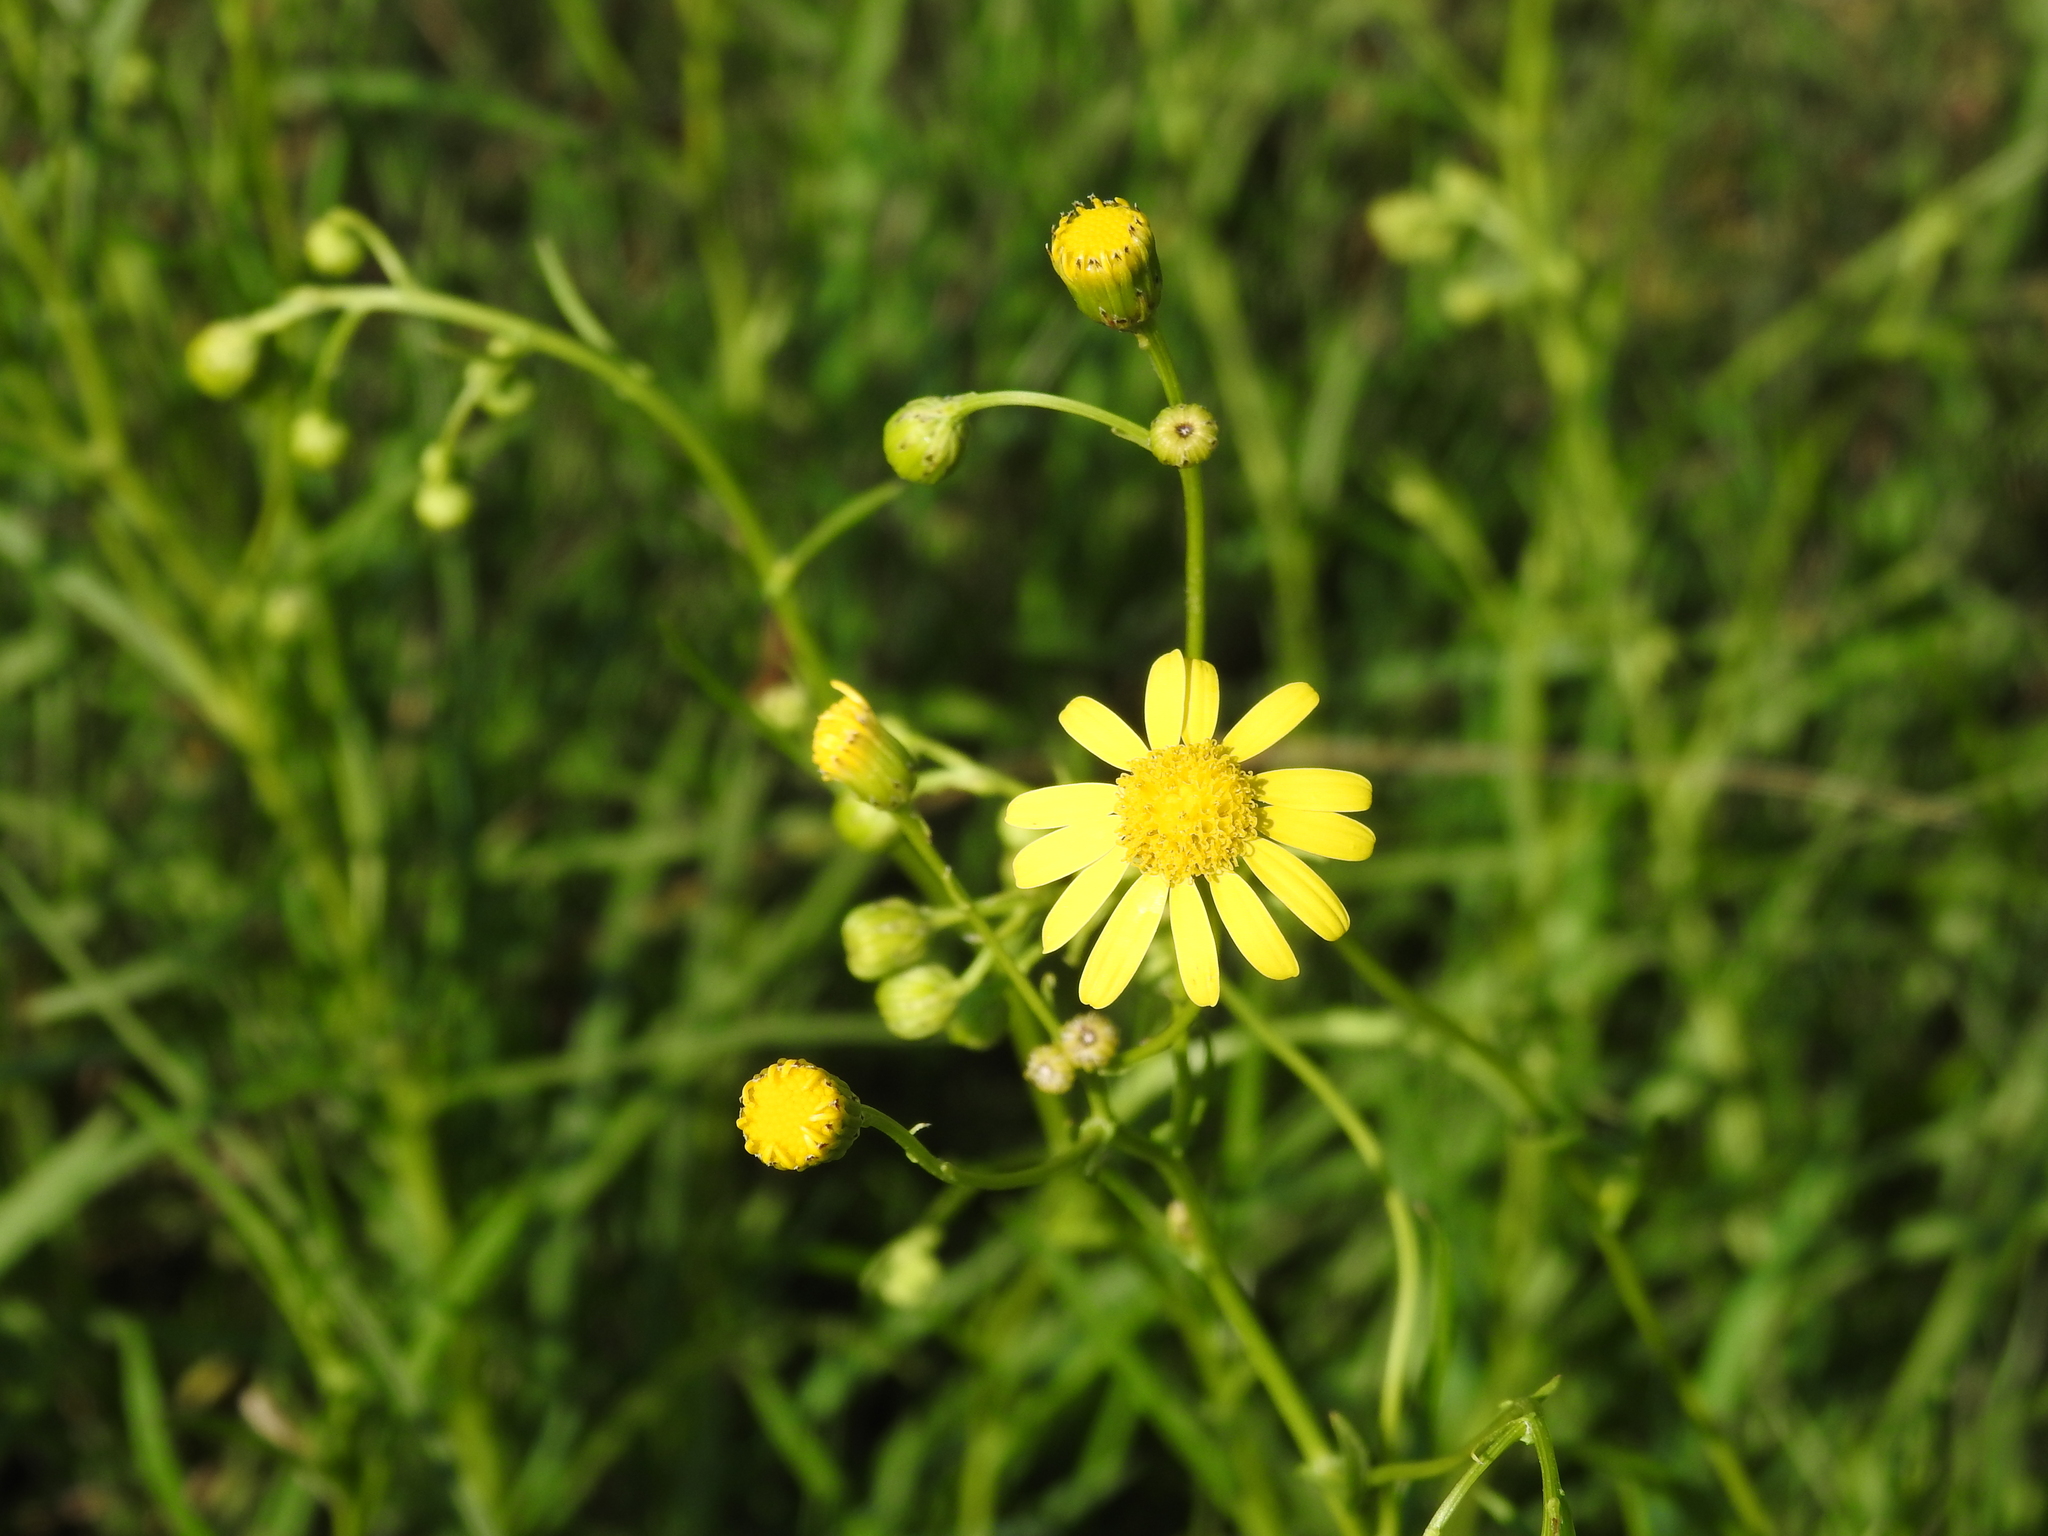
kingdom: Plantae
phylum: Tracheophyta
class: Magnoliopsida
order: Asterales
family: Asteraceae
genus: Senecio
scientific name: Senecio inaequidens
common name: Narrow-leaved ragwort
